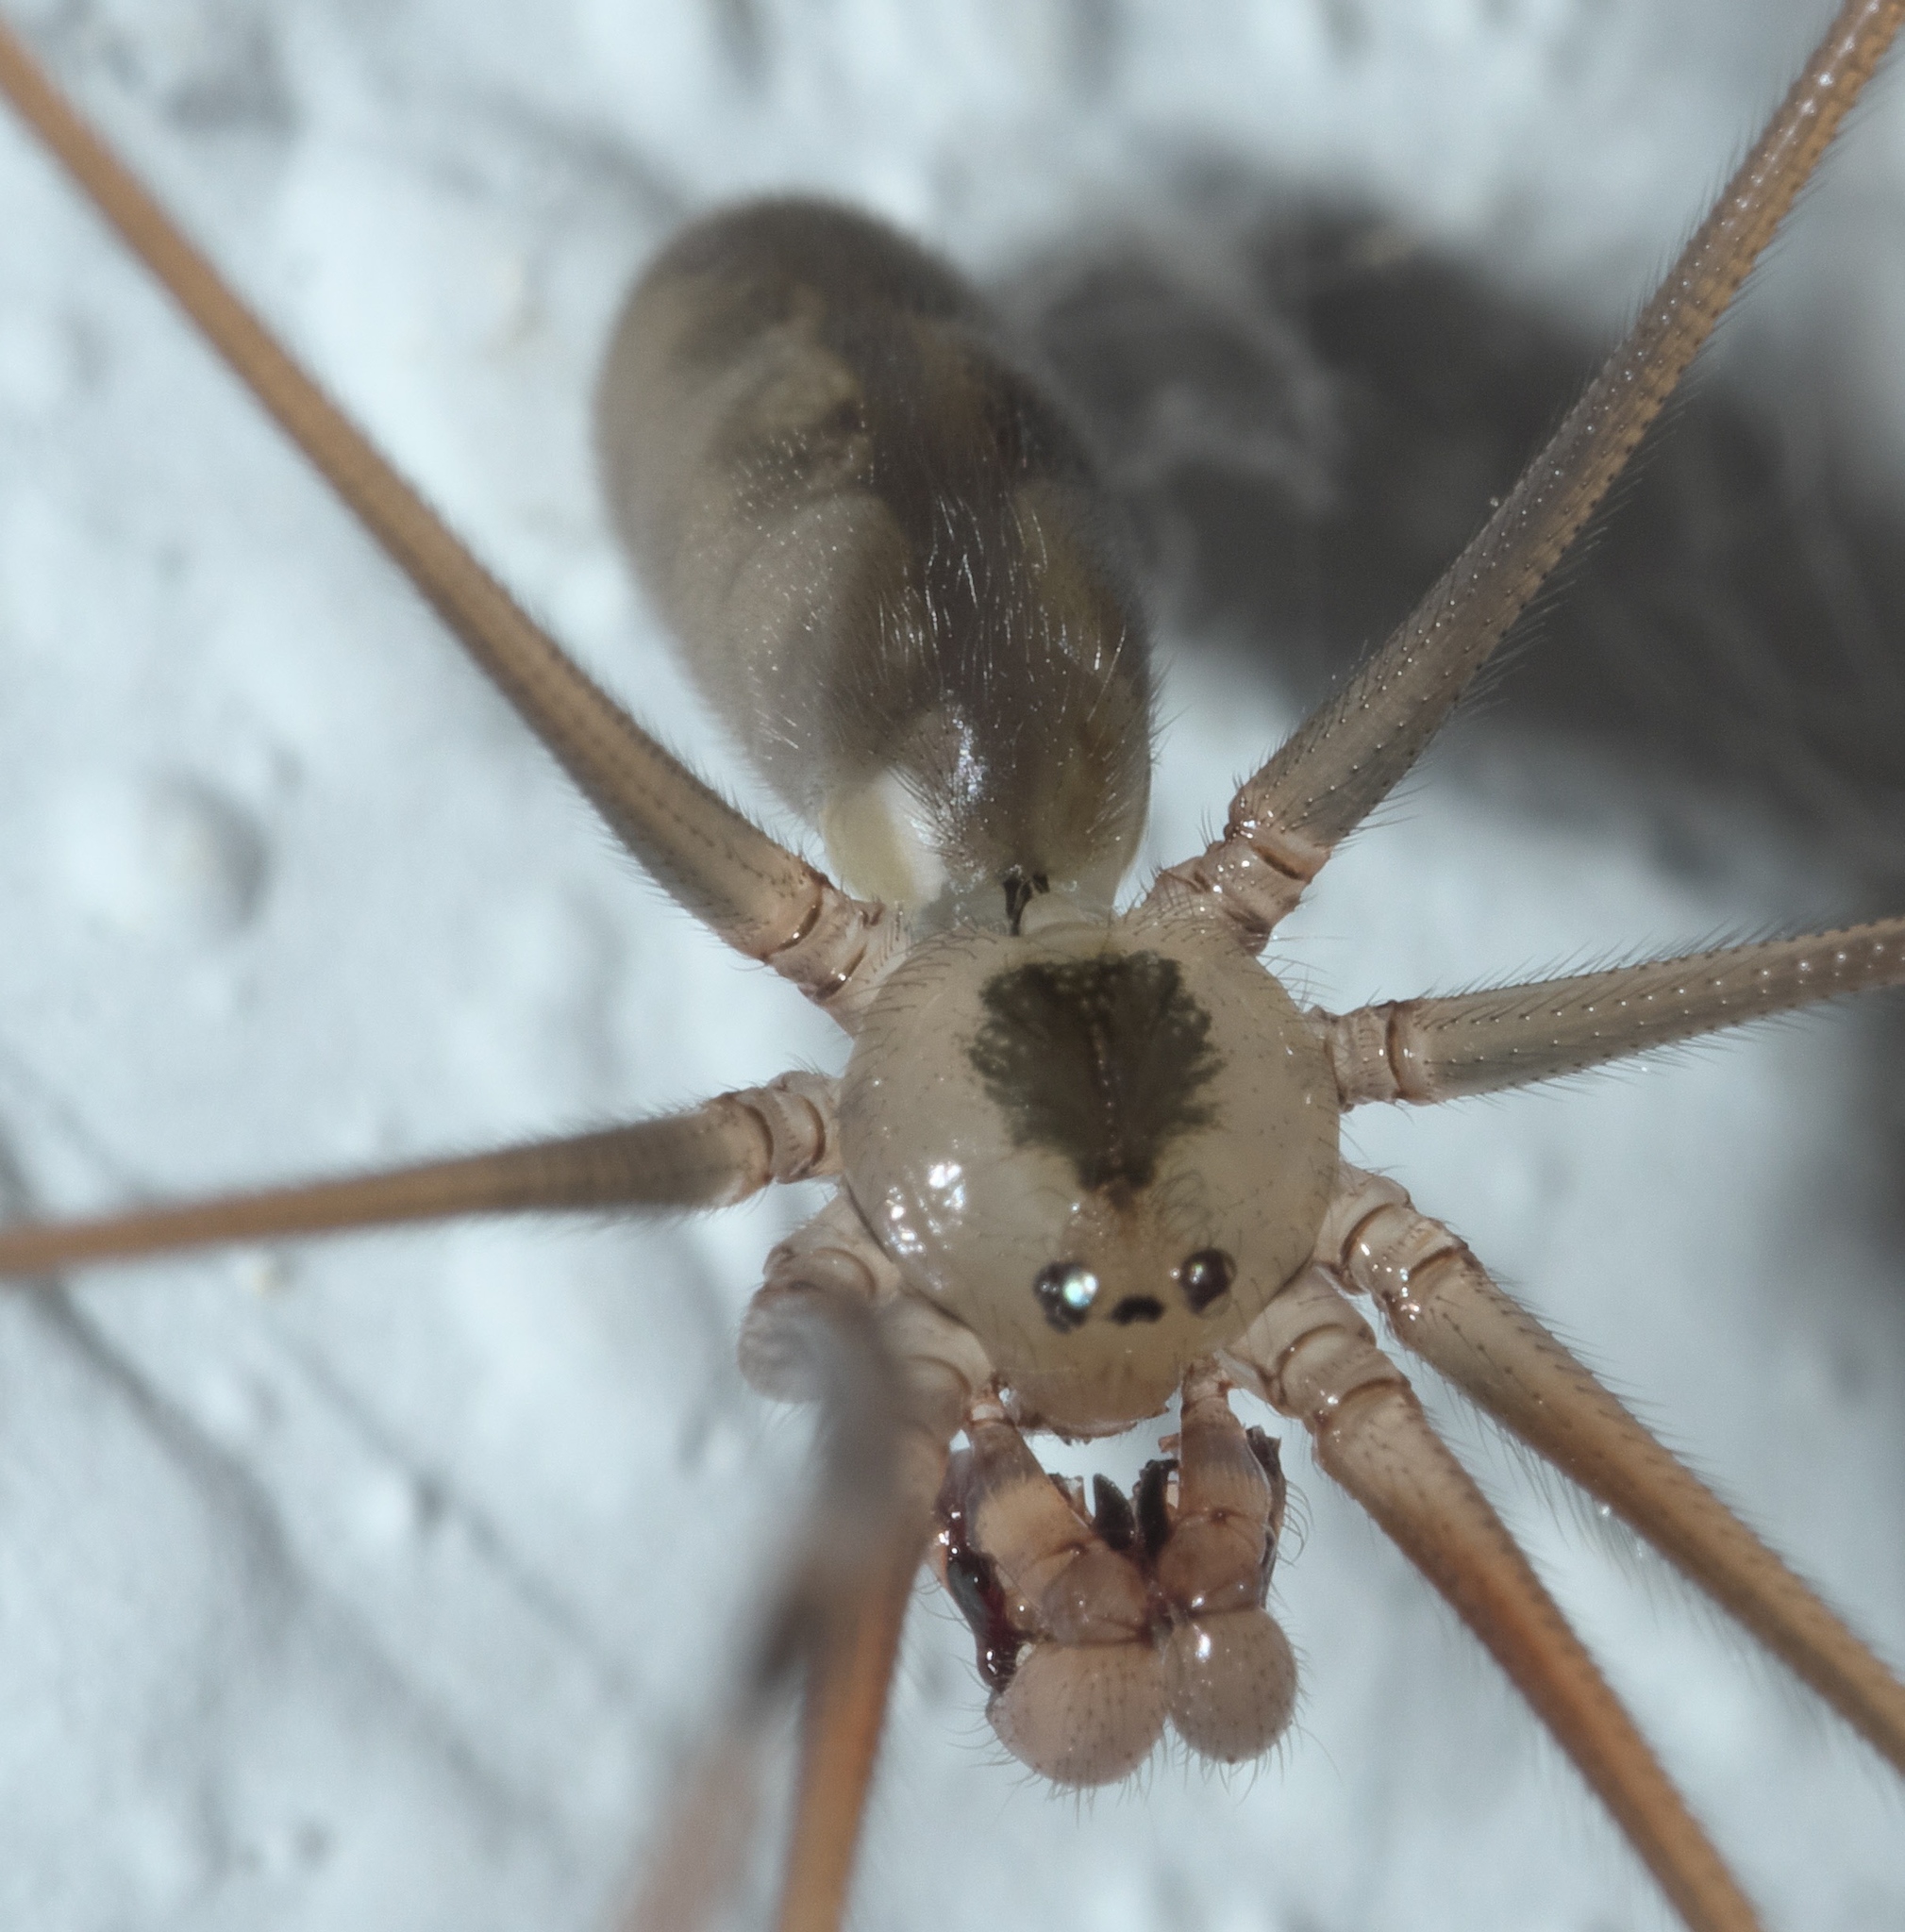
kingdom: Animalia
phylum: Arthropoda
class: Arachnida
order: Araneae
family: Pholcidae
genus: Pholcus
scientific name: Pholcus phalangioides
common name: Longbodied cellar spider
